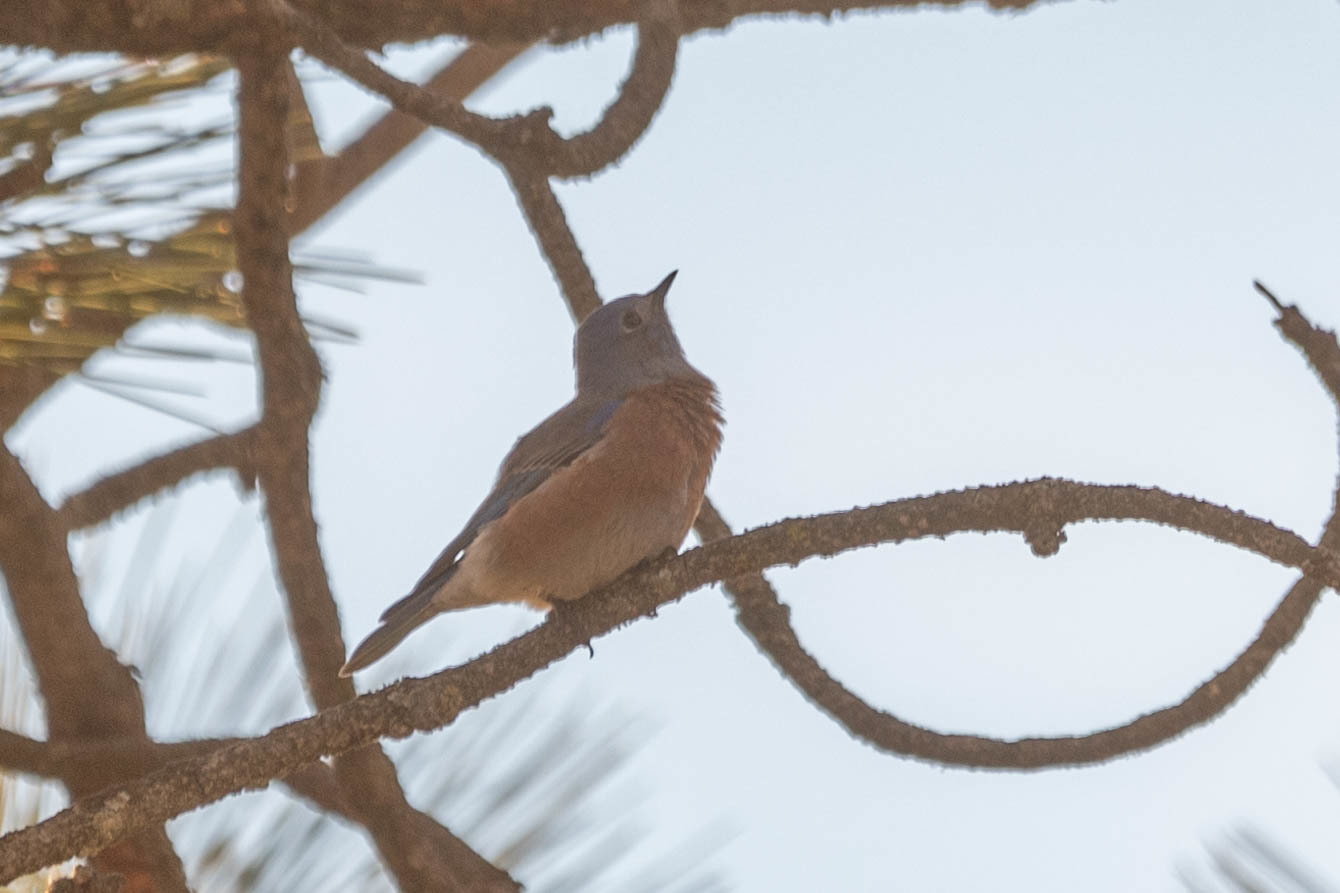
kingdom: Animalia
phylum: Chordata
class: Aves
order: Passeriformes
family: Turdidae
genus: Sialia
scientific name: Sialia mexicana
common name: Western bluebird
